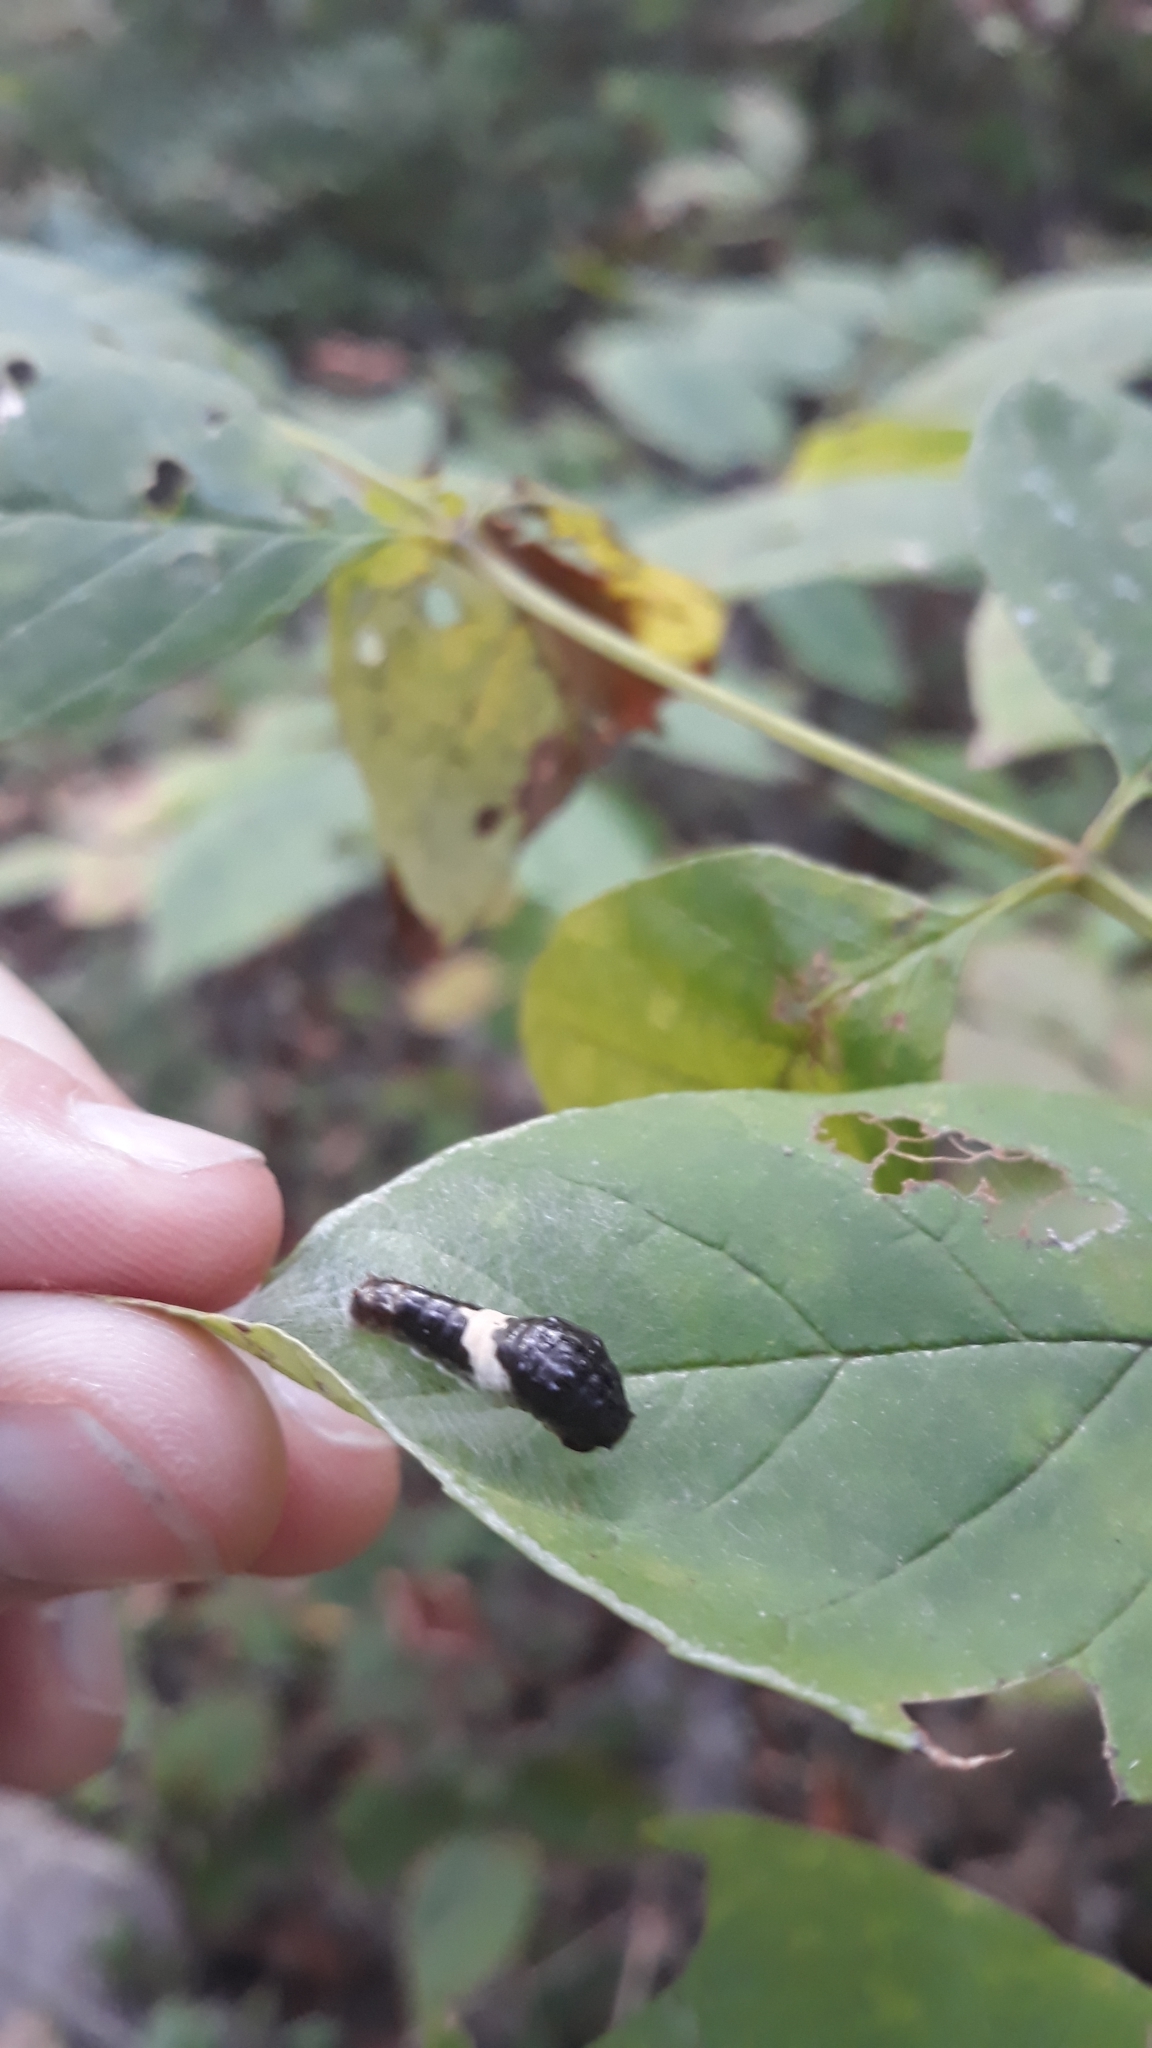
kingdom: Animalia
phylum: Arthropoda
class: Insecta
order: Lepidoptera
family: Papilionidae
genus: Papilio
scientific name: Papilio glaucus
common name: Tiger swallowtail
